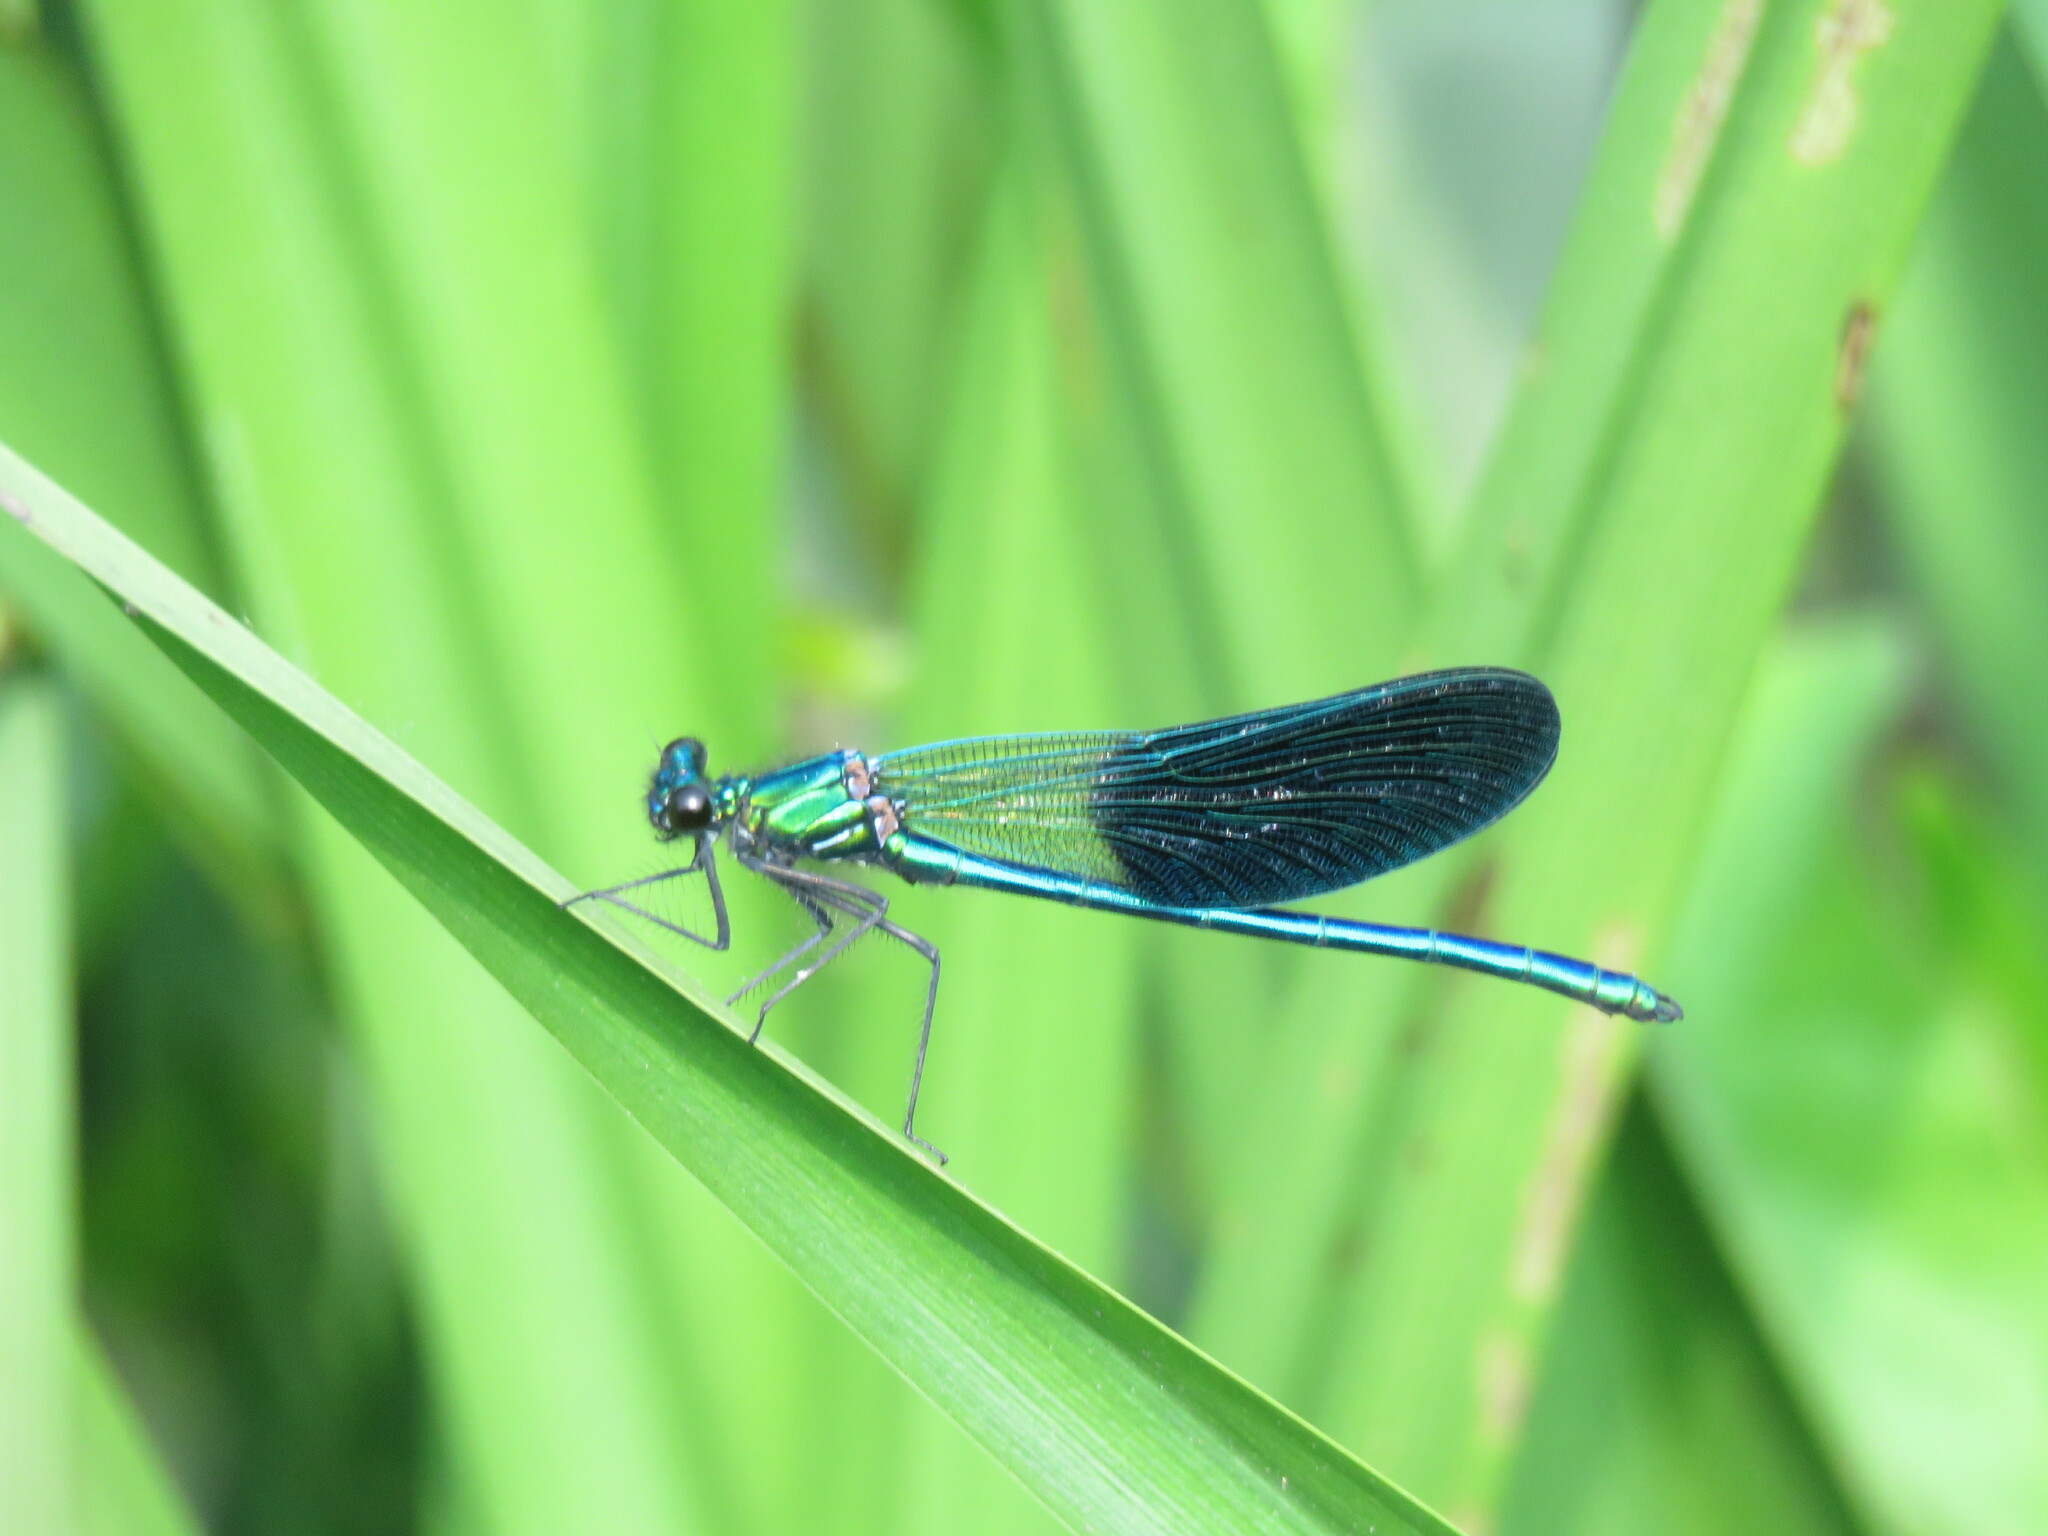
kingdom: Animalia
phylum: Arthropoda
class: Insecta
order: Odonata
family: Calopterygidae
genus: Calopteryx
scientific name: Calopteryx xanthostoma
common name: Western demoiselle
